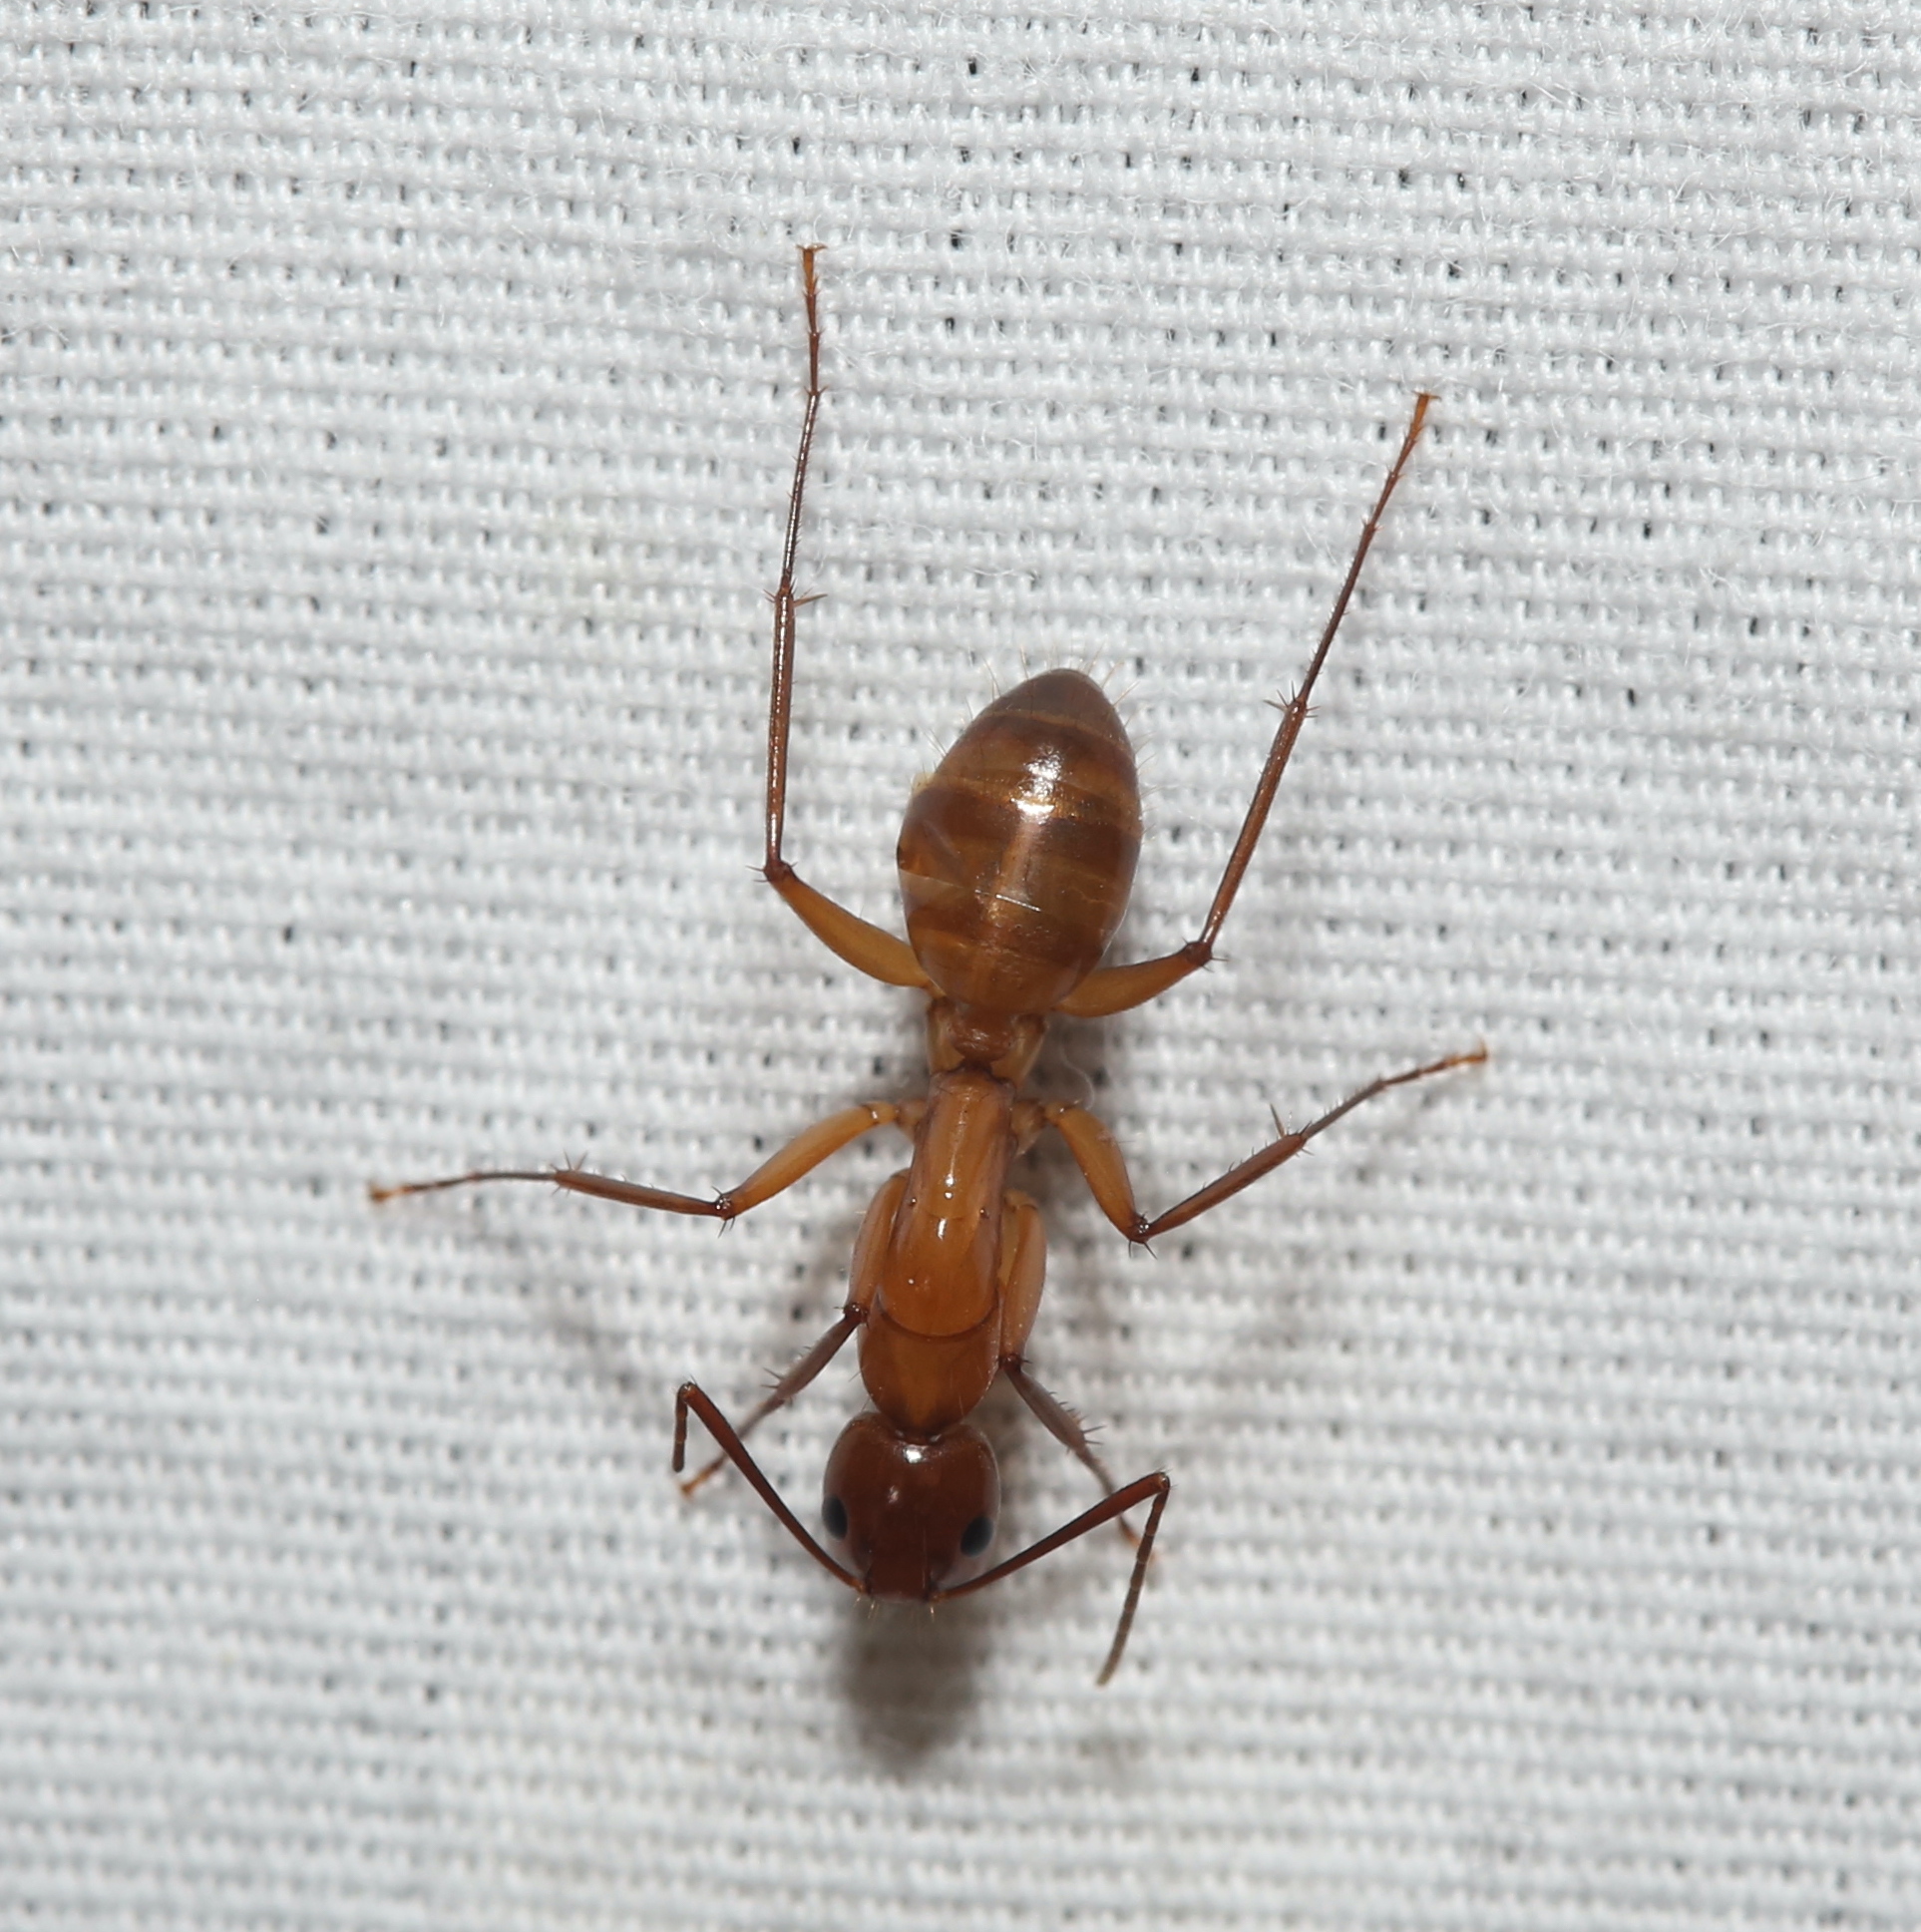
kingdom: Animalia
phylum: Arthropoda
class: Insecta
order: Hymenoptera
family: Formicidae
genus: Camponotus
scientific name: Camponotus castaneus
